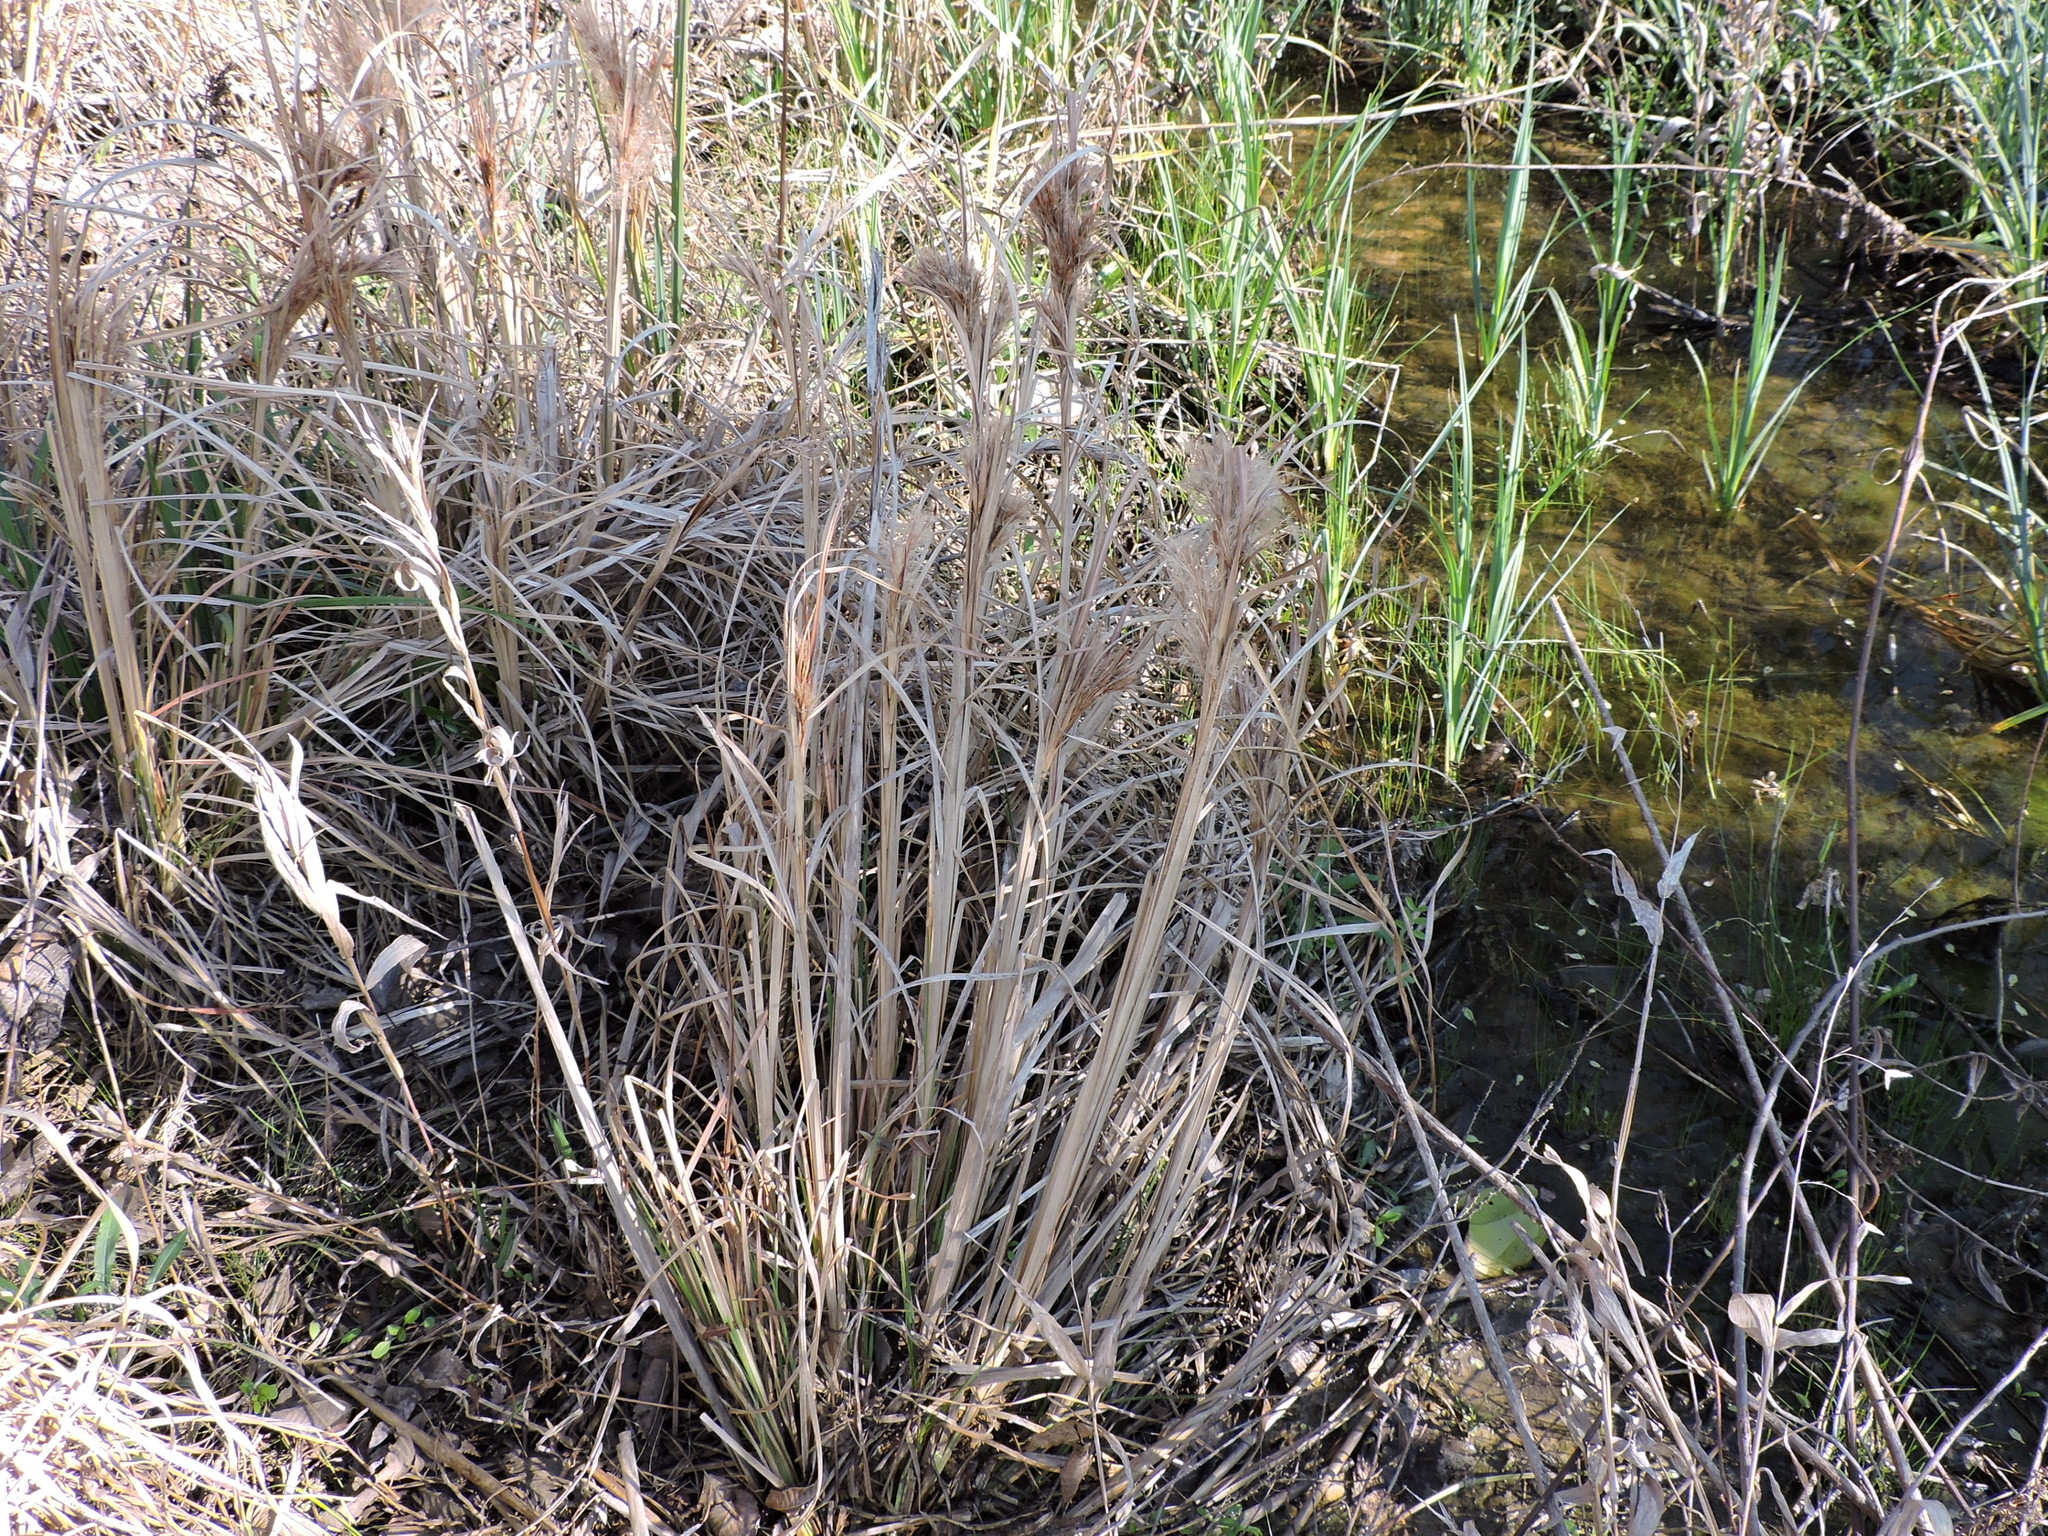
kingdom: Plantae
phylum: Tracheophyta
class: Liliopsida
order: Poales
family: Poaceae
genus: Andropogon
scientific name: Andropogon tenuispatheus
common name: Bushy bluestem
